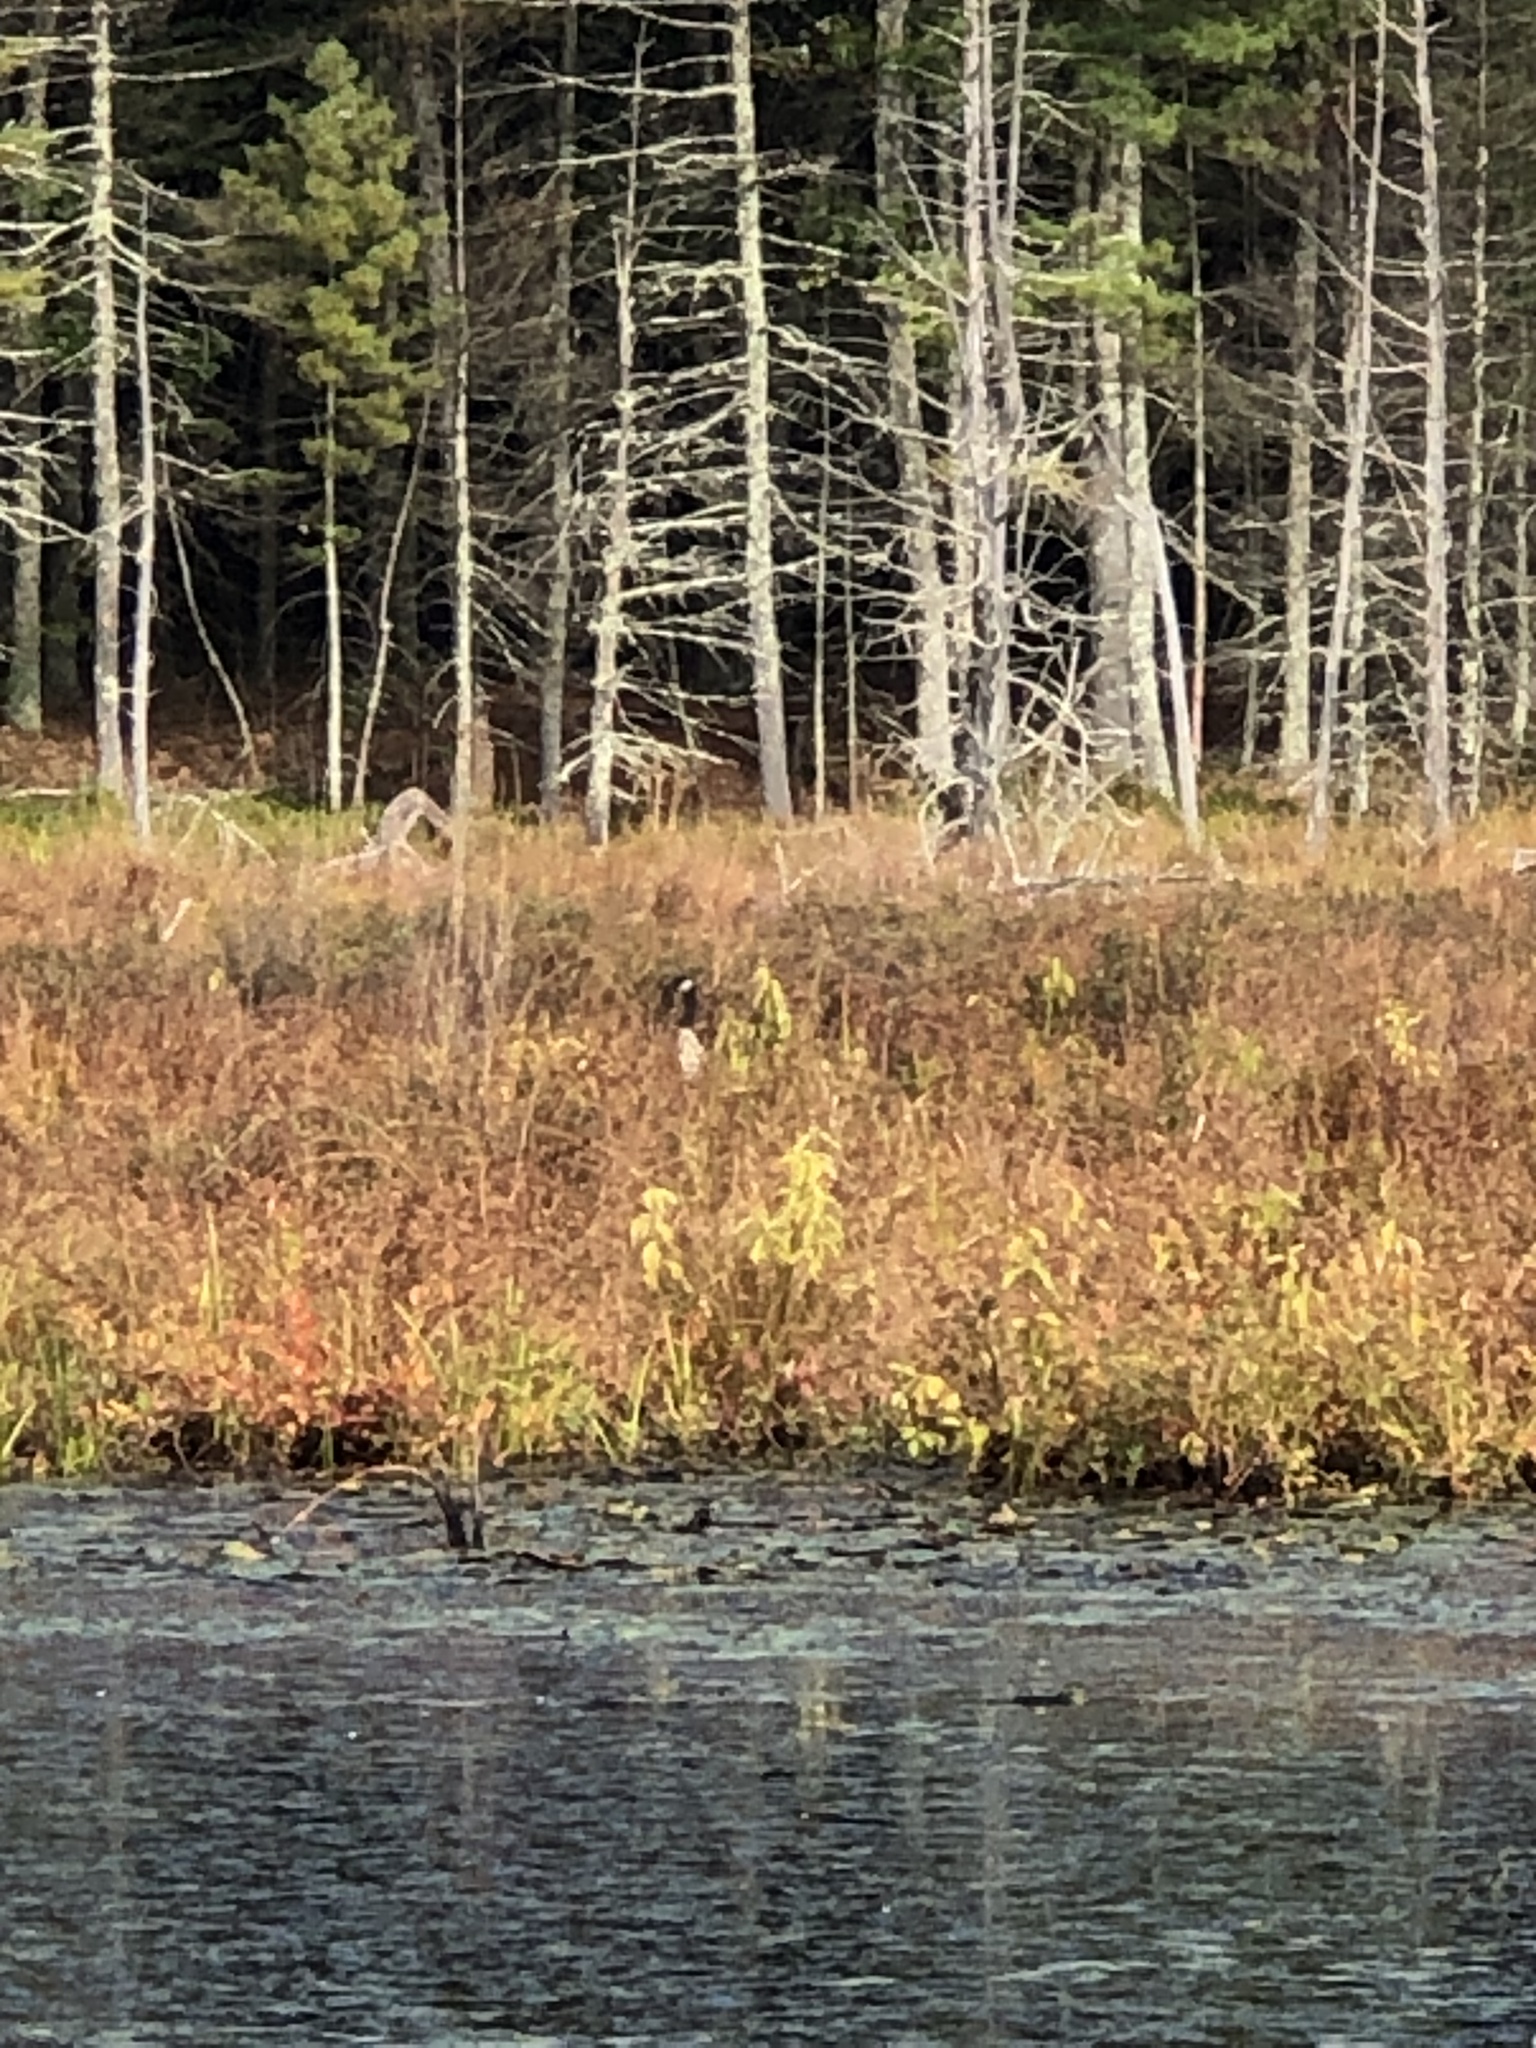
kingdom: Animalia
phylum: Chordata
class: Aves
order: Anseriformes
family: Anatidae
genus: Branta
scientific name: Branta canadensis
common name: Canada goose
